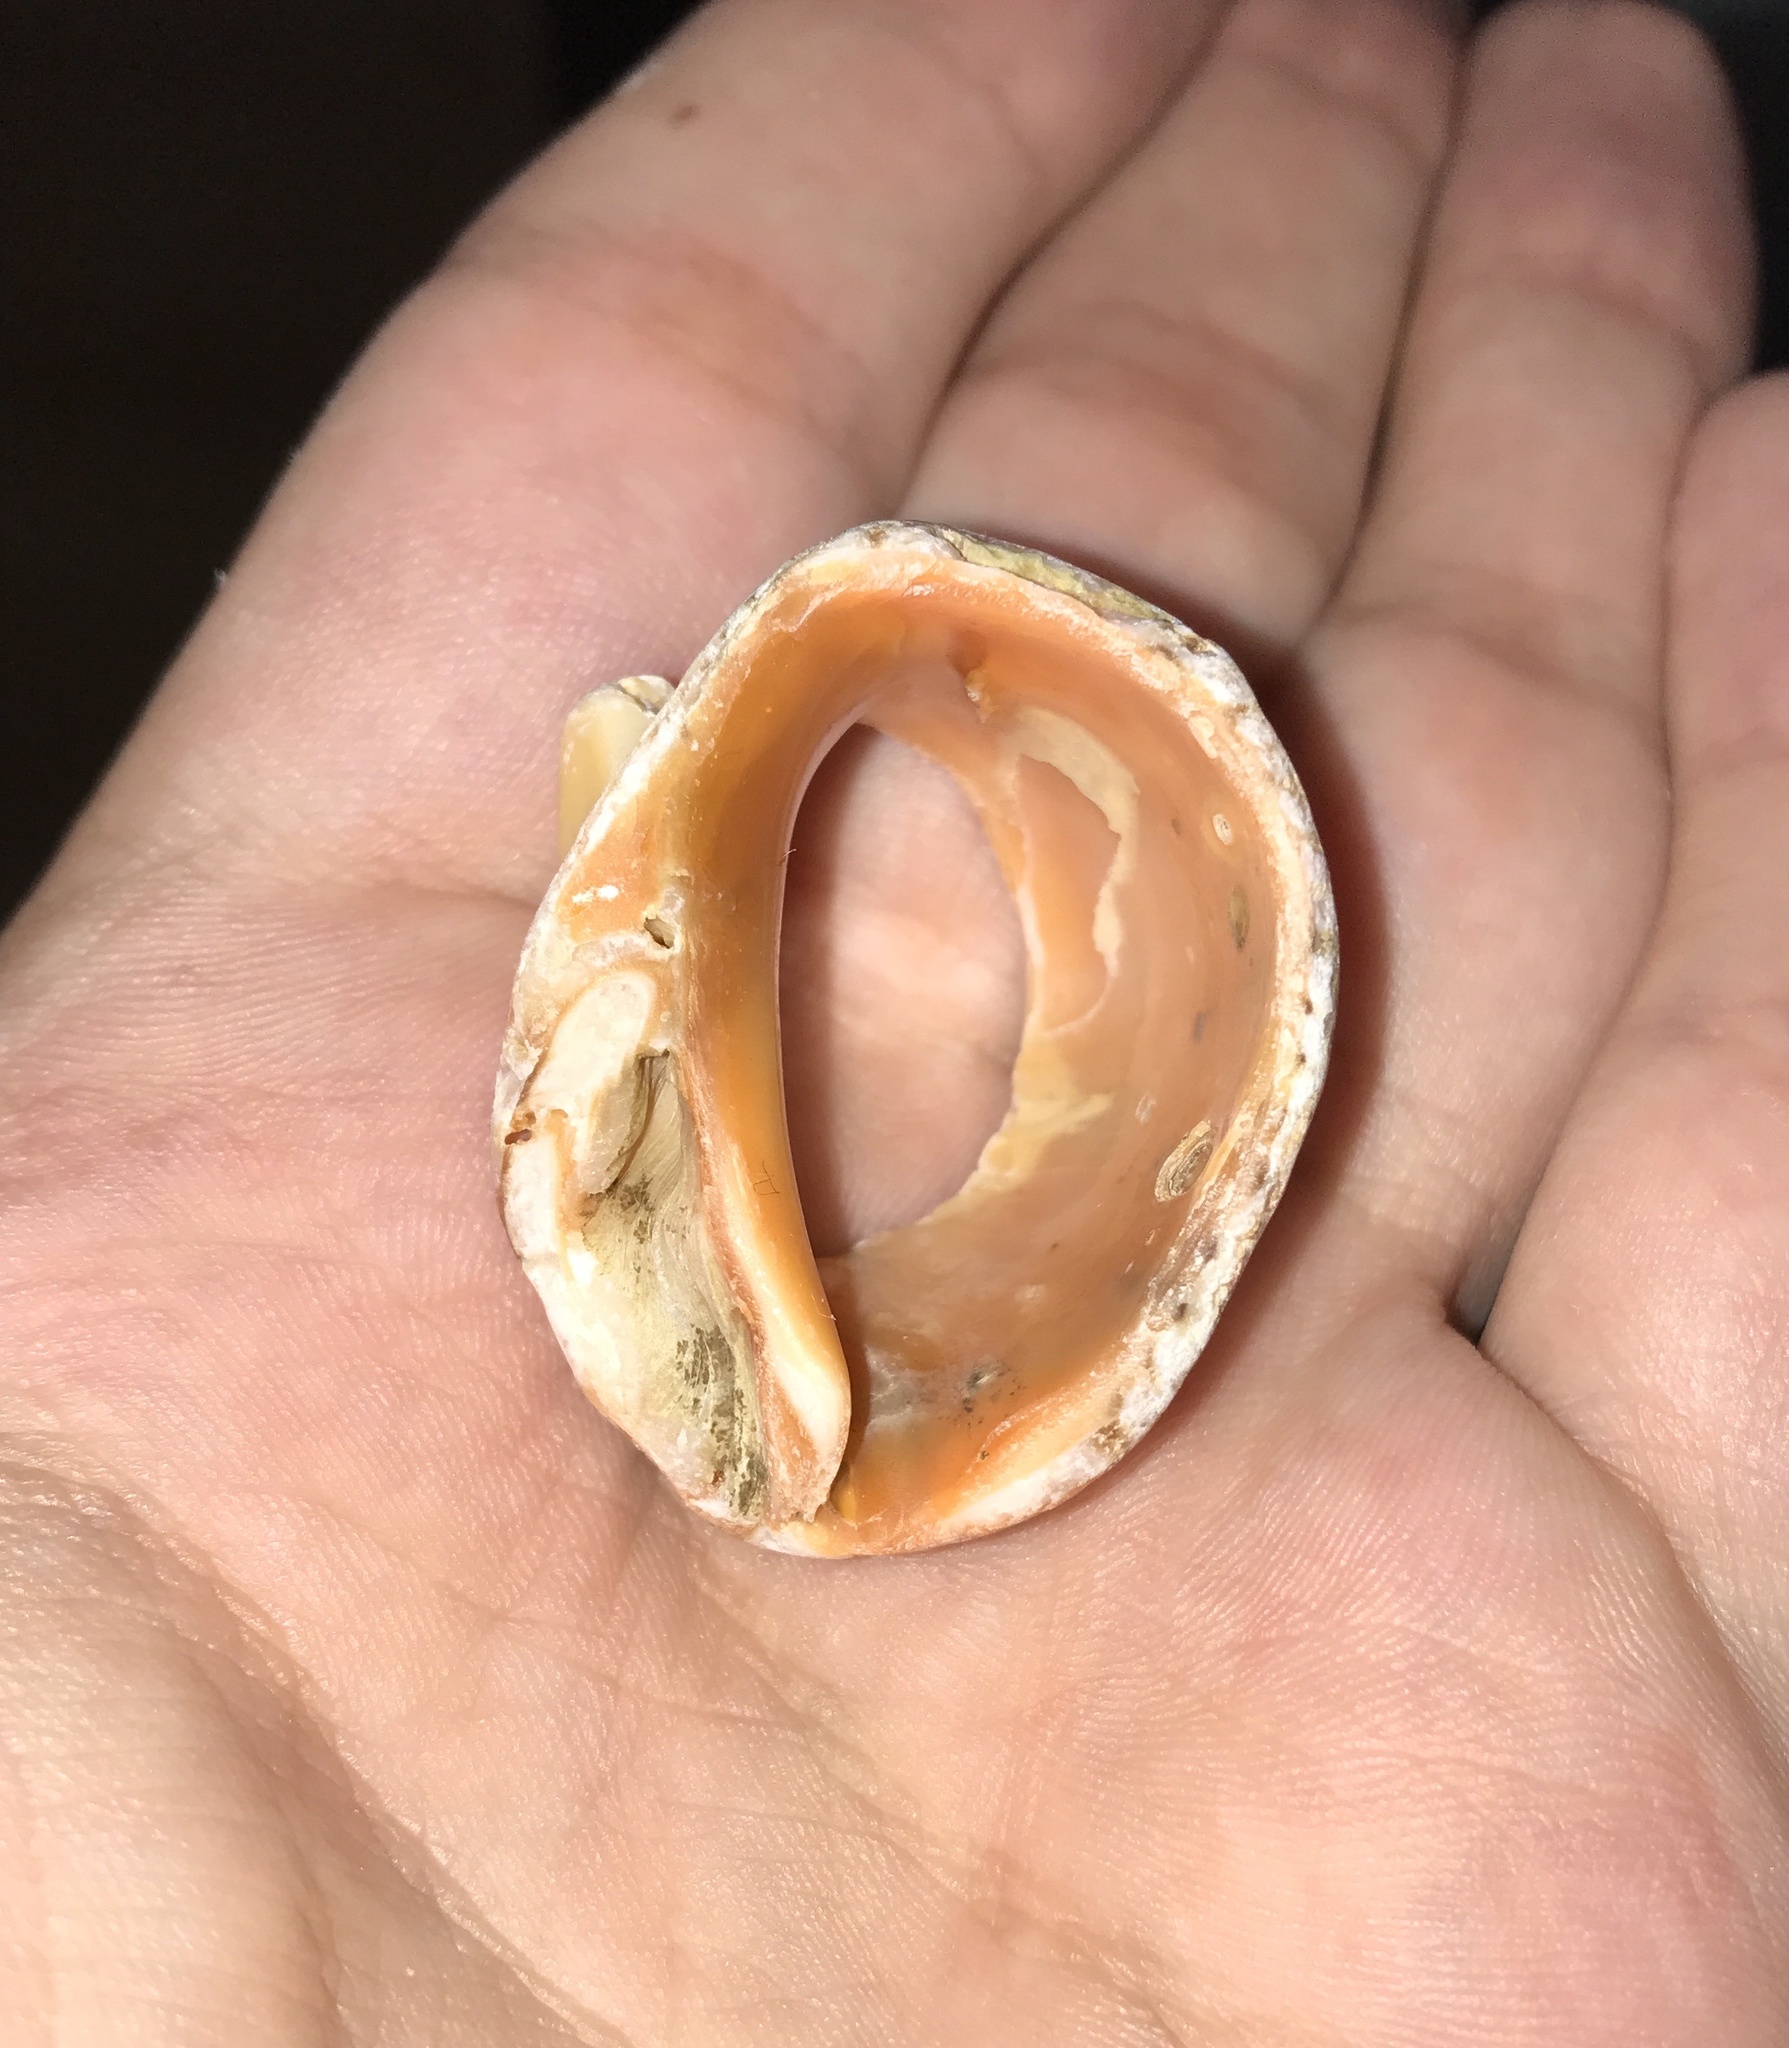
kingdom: Animalia
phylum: Mollusca
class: Gastropoda
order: Neogastropoda
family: Muricidae
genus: Rapana
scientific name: Rapana venosa
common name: Veined rapa whelk
